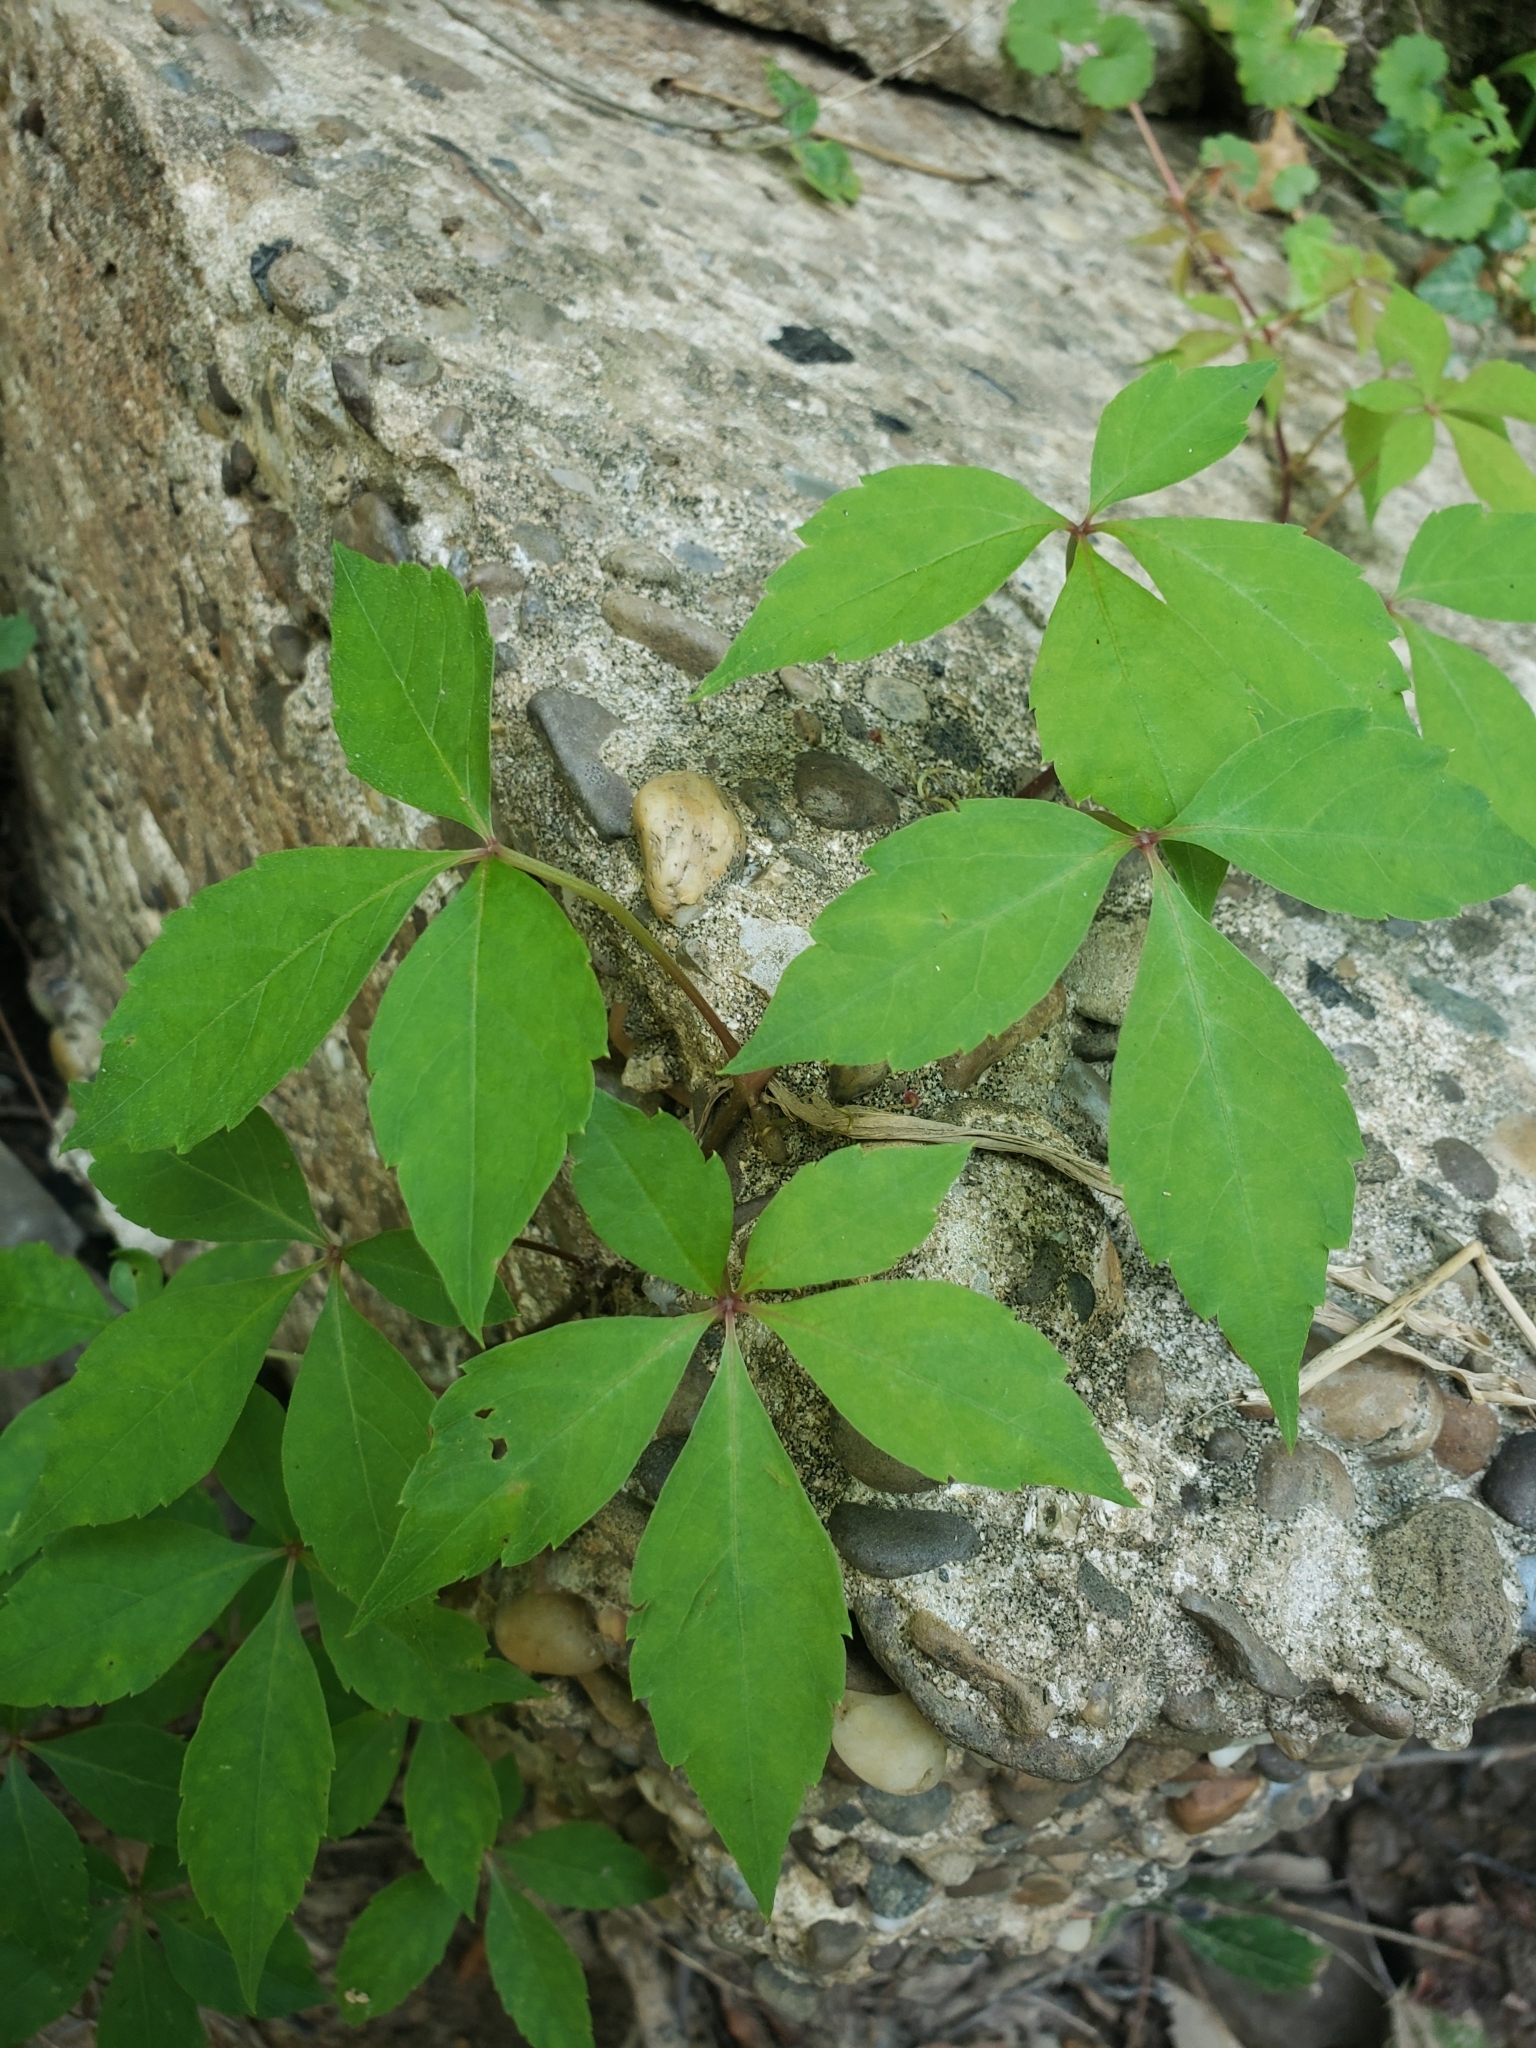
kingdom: Plantae
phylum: Tracheophyta
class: Magnoliopsida
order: Vitales
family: Vitaceae
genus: Parthenocissus
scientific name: Parthenocissus quinquefolia
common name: Virginia-creeper
